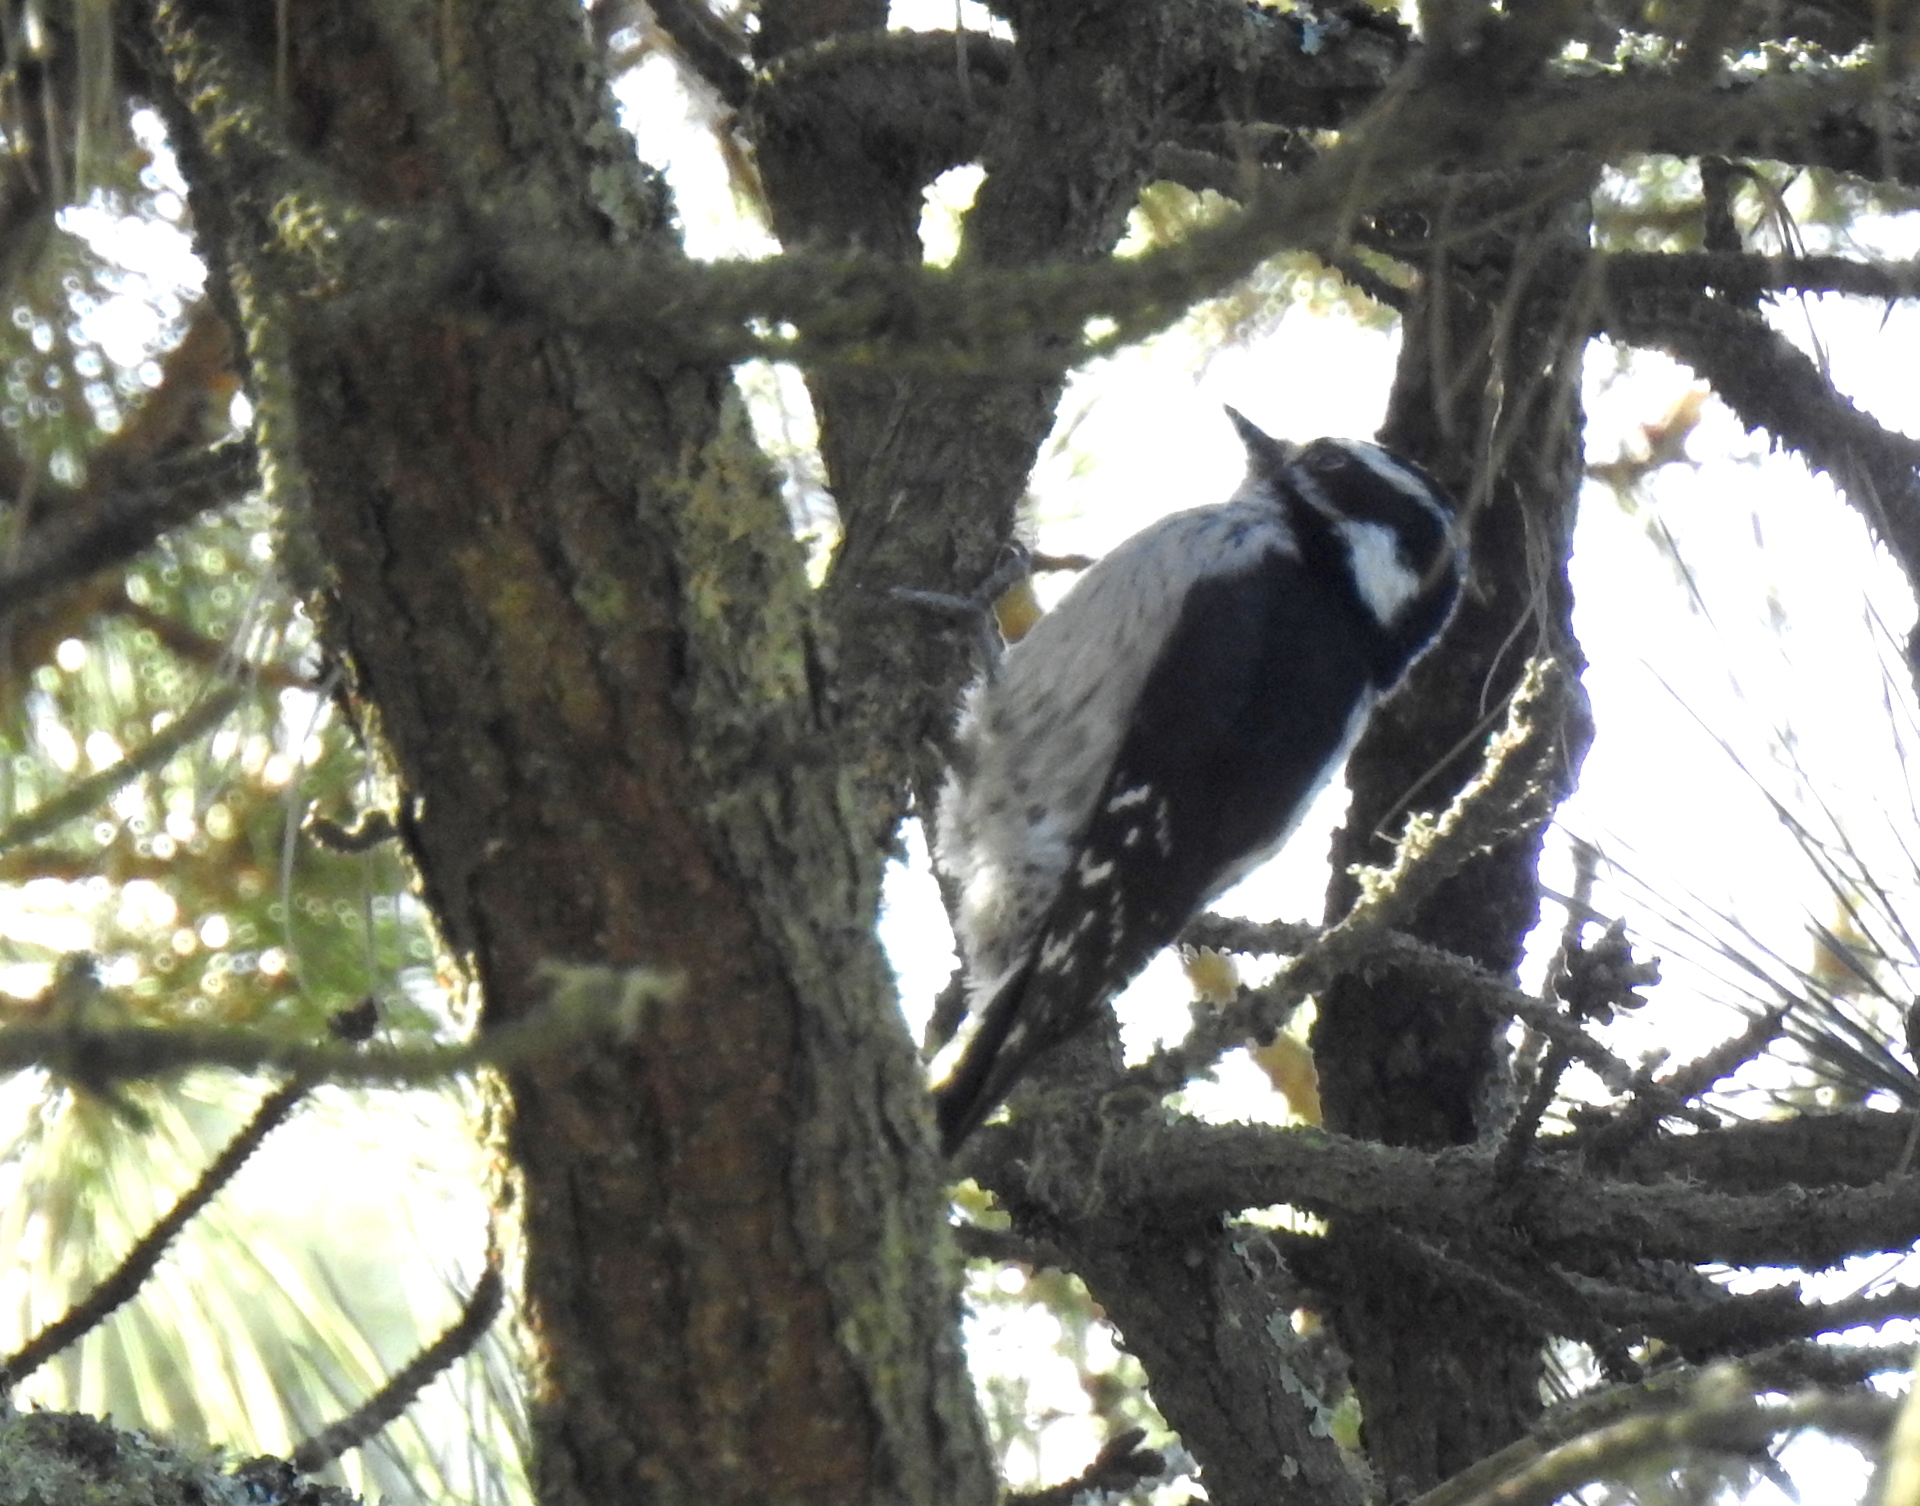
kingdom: Animalia
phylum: Chordata
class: Aves
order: Piciformes
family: Picidae
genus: Dryobates
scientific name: Dryobates pubescens
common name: Downy woodpecker
